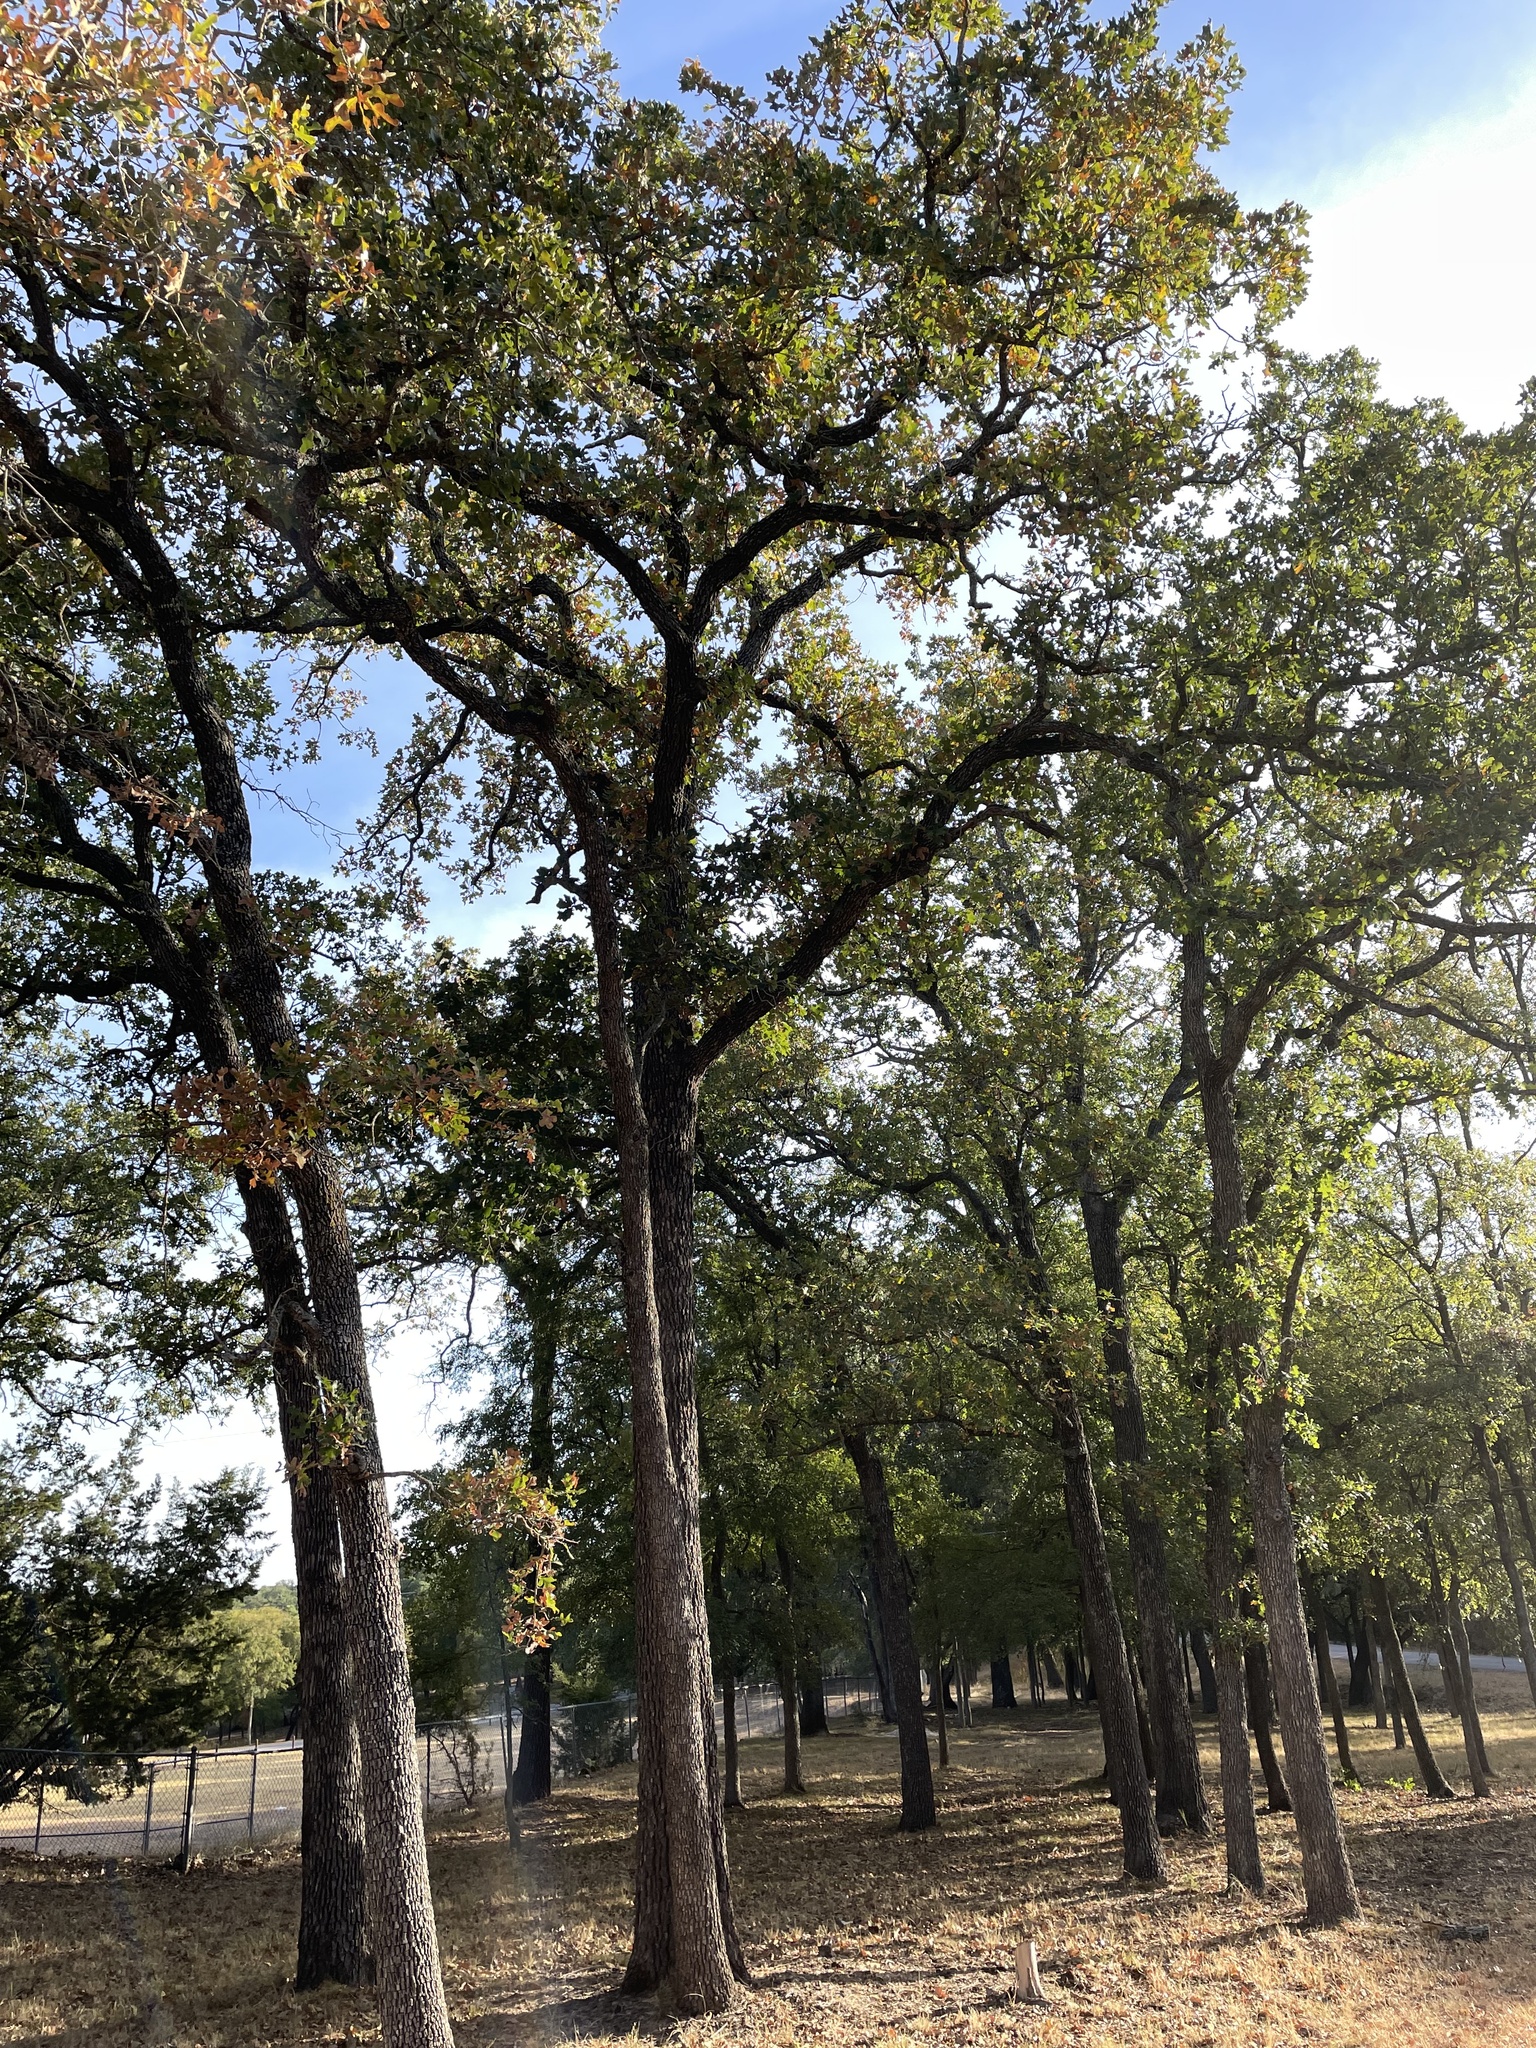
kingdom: Plantae
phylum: Tracheophyta
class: Magnoliopsida
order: Fagales
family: Fagaceae
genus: Quercus
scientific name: Quercus stellata
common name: Post oak
